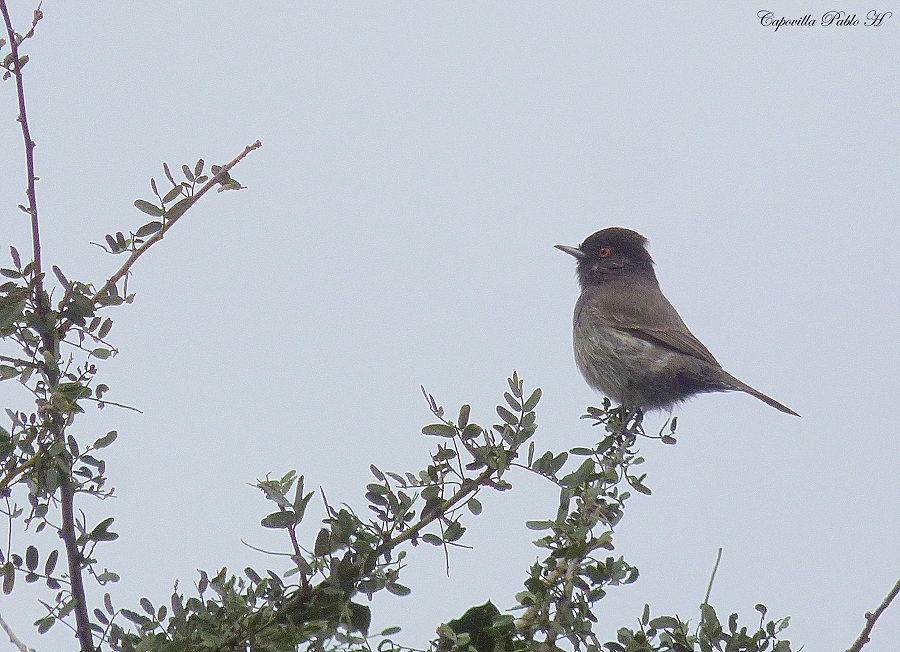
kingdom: Animalia
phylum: Chordata
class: Aves
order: Passeriformes
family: Tyrannidae
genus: Knipolegus
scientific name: Knipolegus striaticeps
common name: Cinereous tyrant
